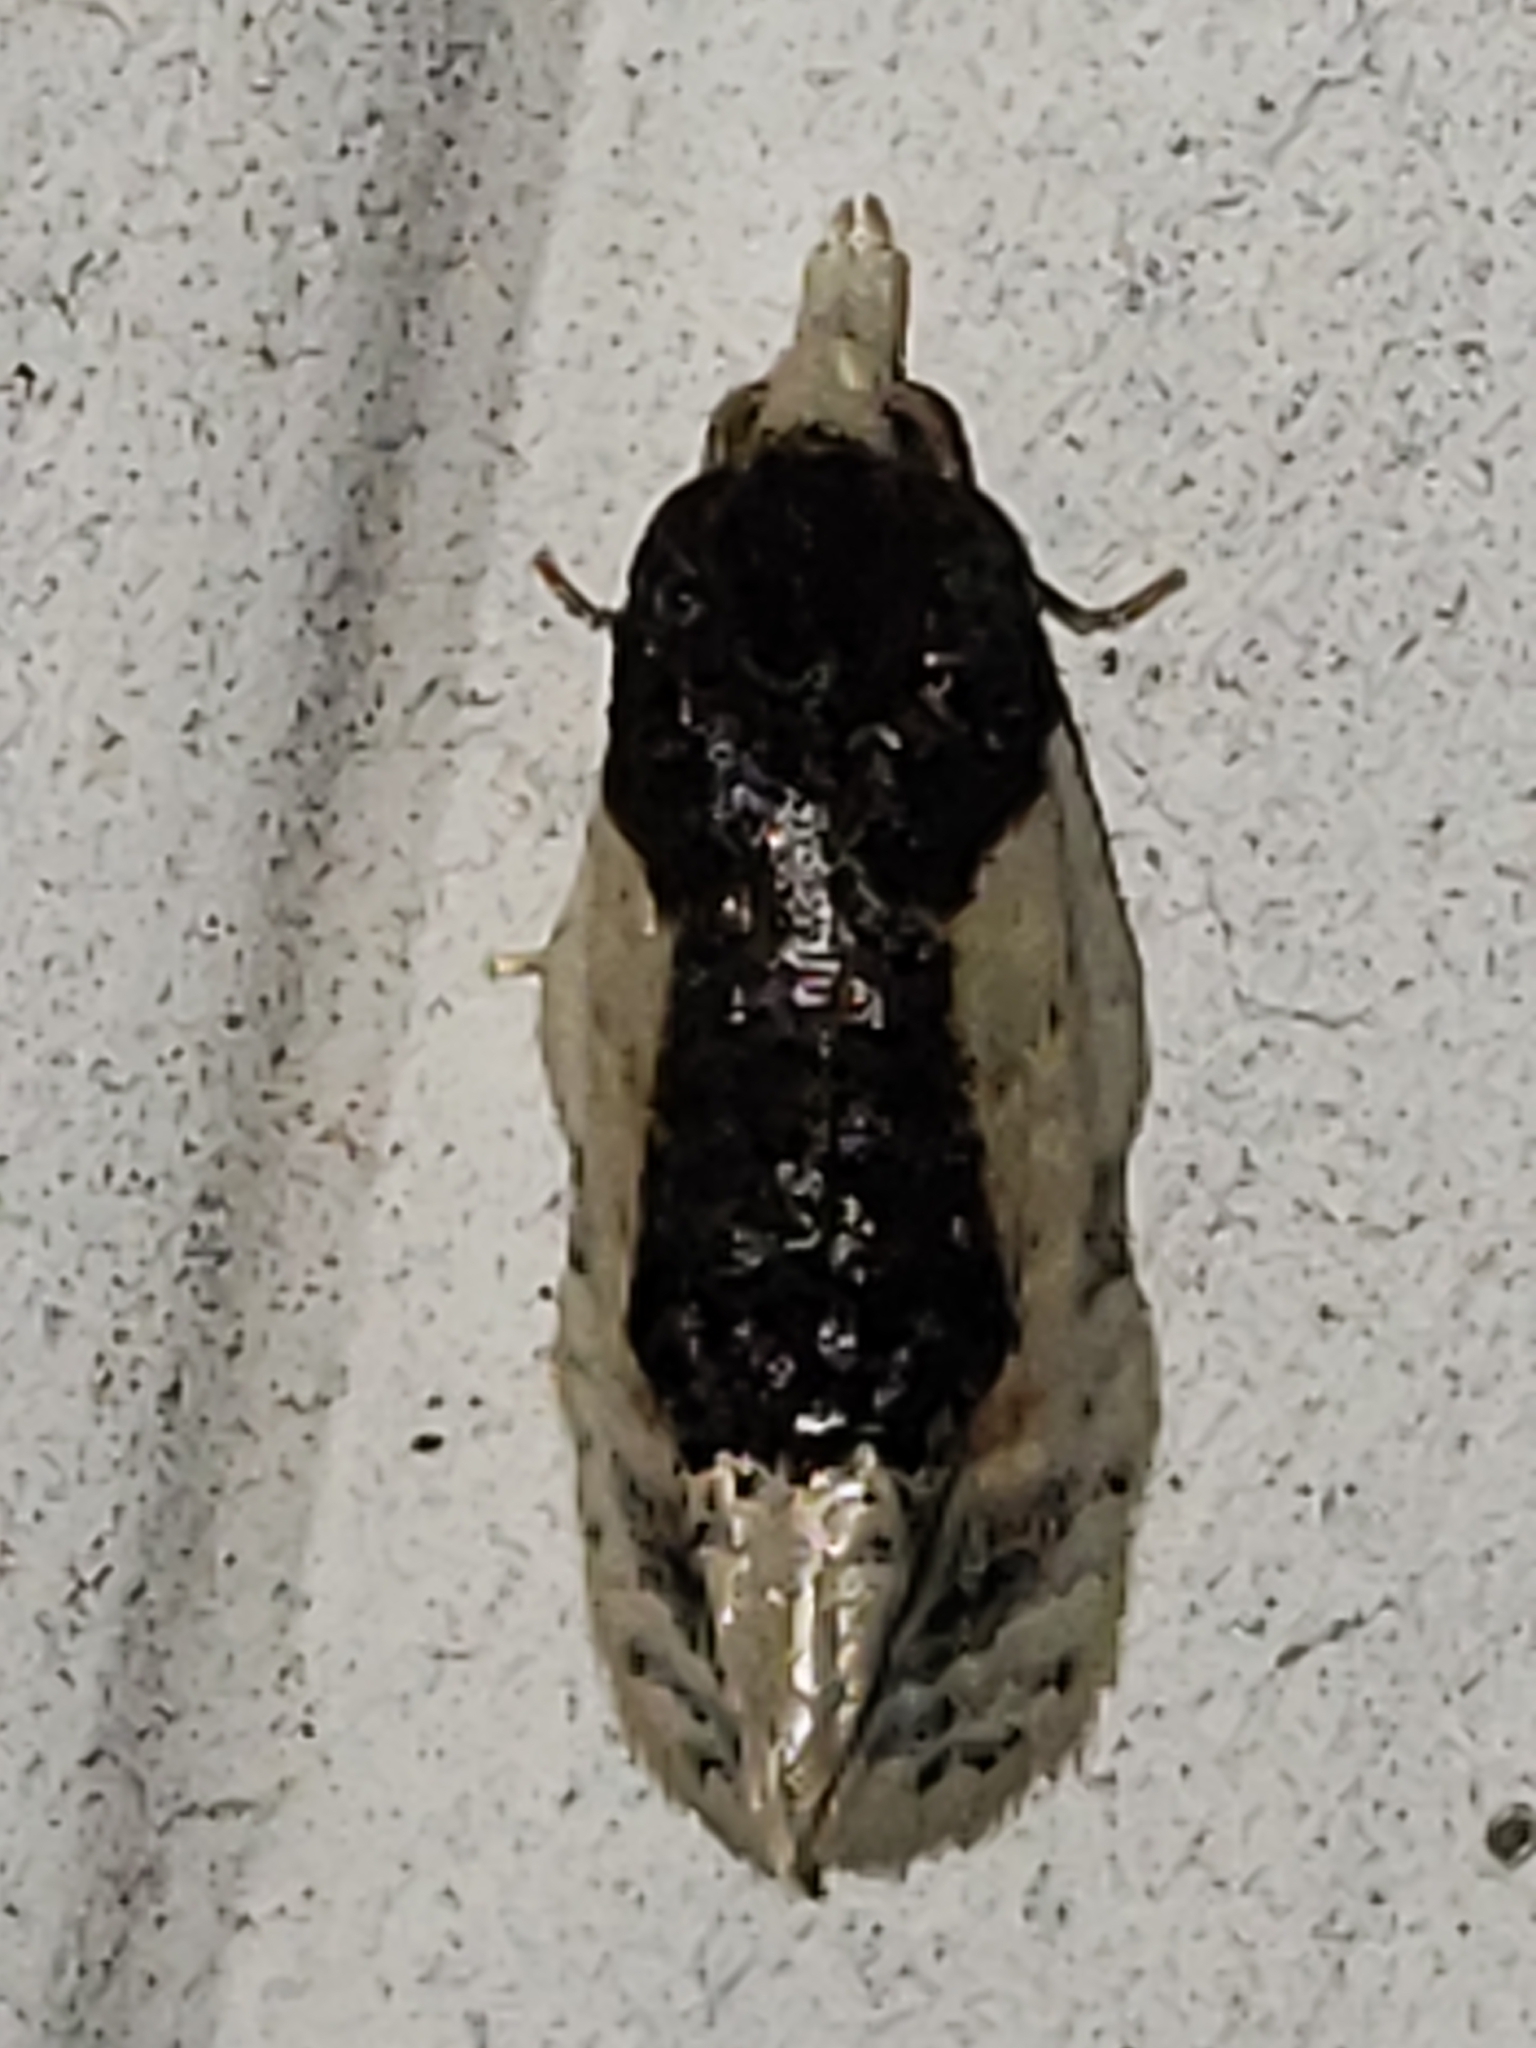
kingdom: Animalia
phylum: Arthropoda
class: Insecta
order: Lepidoptera
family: Tortricidae
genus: Henricus
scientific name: Henricus edwardsiana
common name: Contrasting henricus moth
